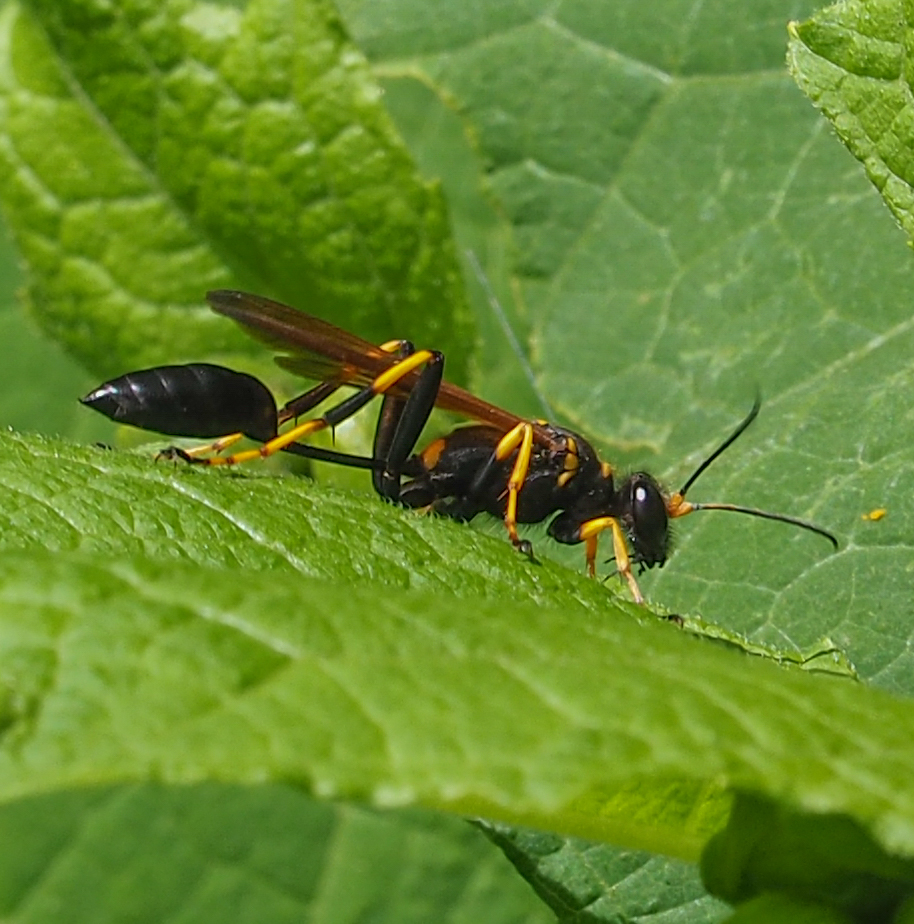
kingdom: Animalia
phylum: Arthropoda
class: Insecta
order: Hymenoptera
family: Sphecidae
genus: Sceliphron
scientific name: Sceliphron caementarium
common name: Mud dauber
